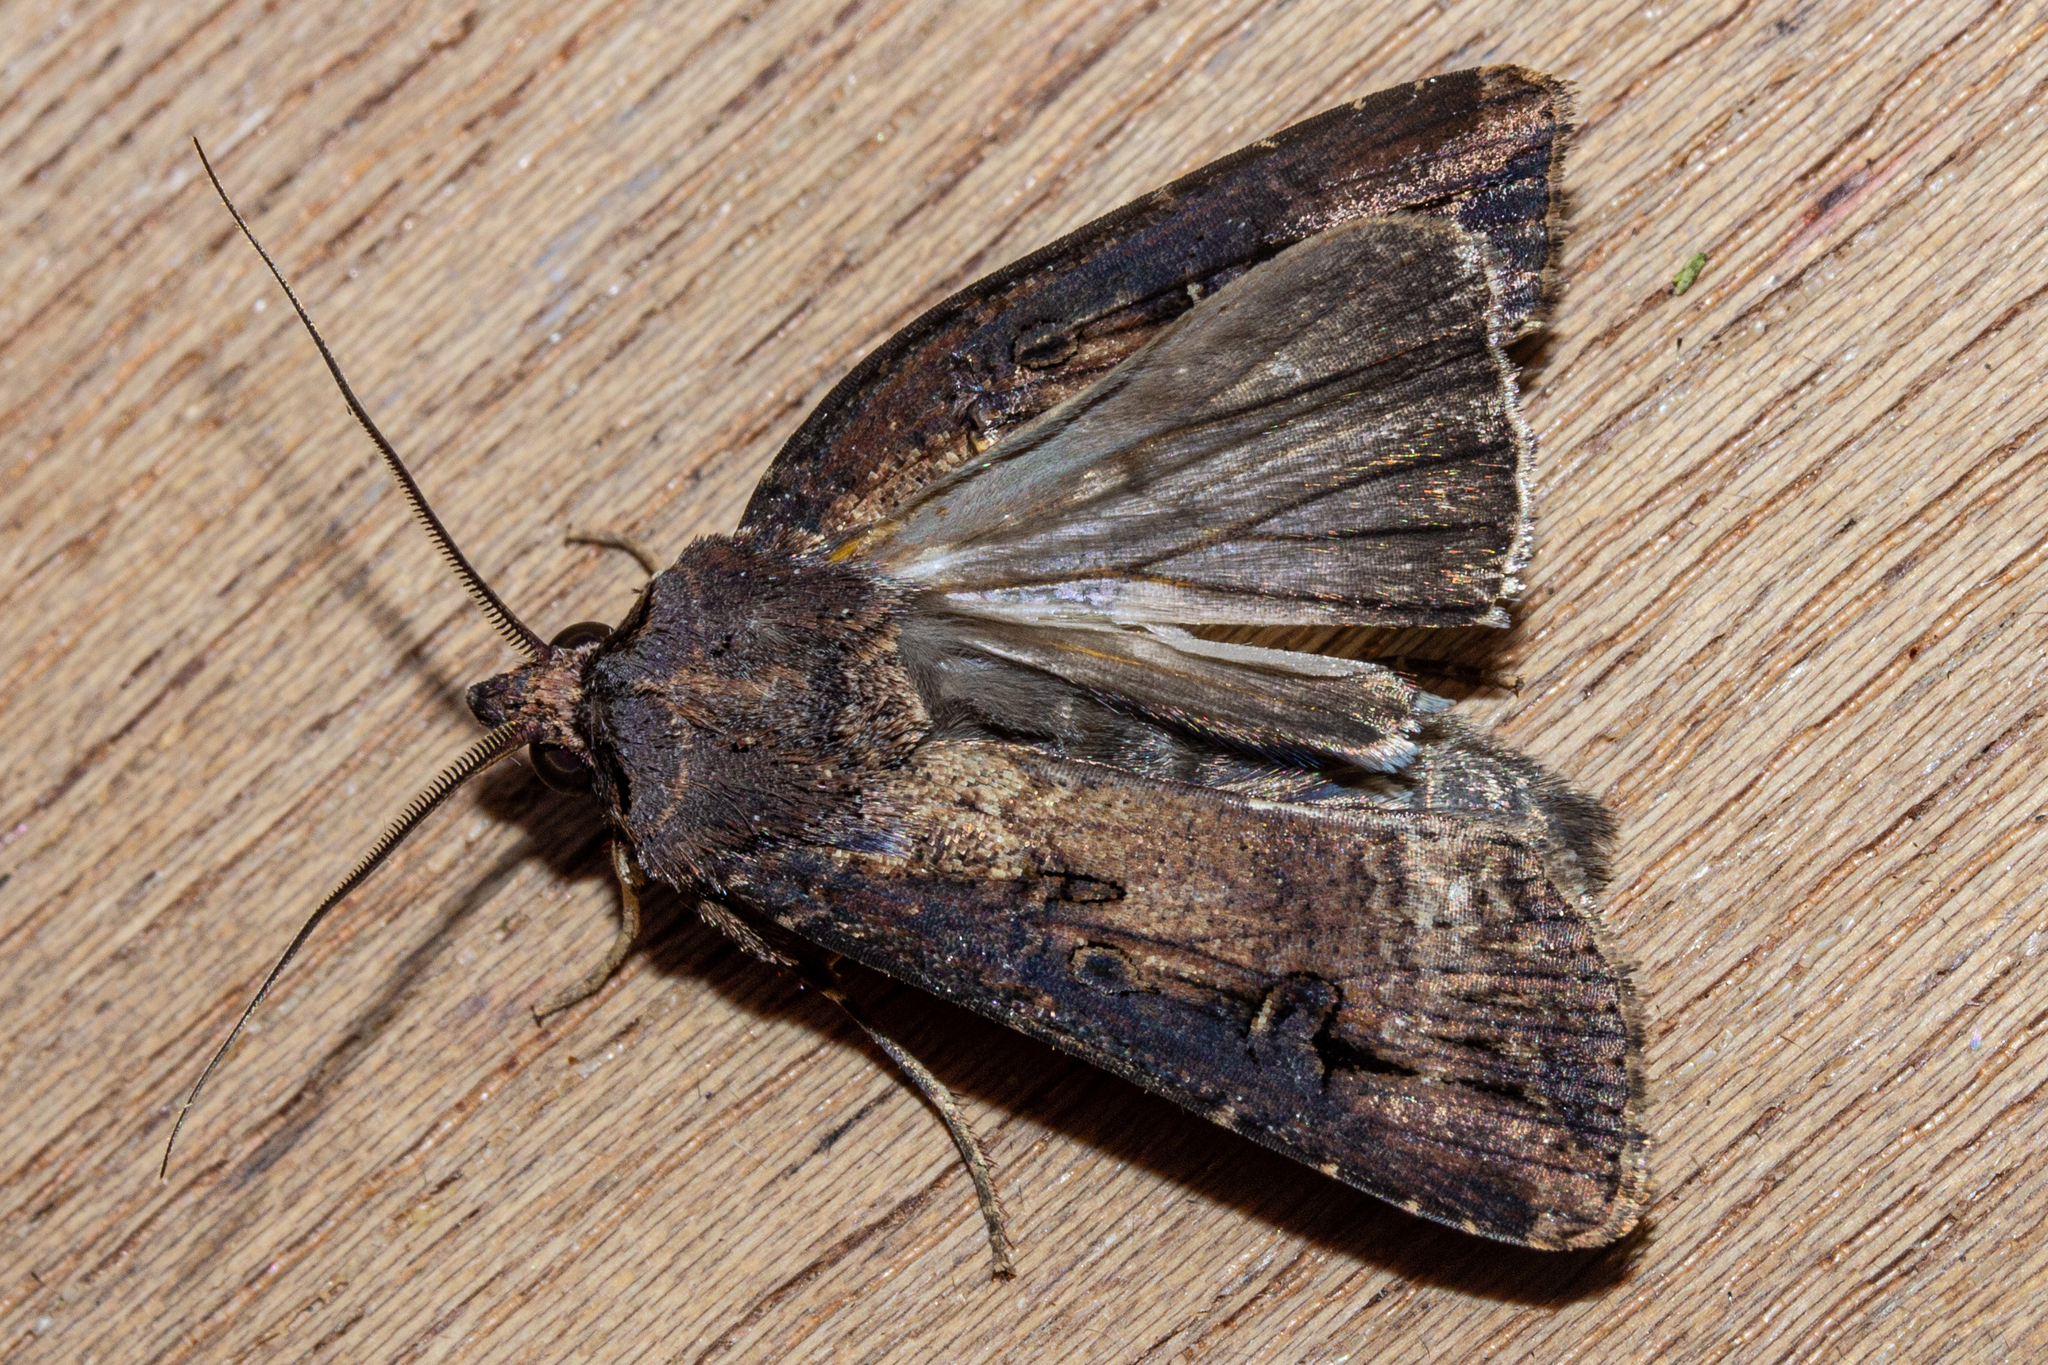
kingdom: Animalia
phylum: Arthropoda
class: Insecta
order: Lepidoptera
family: Noctuidae
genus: Agrotis
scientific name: Agrotis ipsilon
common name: Dark sword-grass
